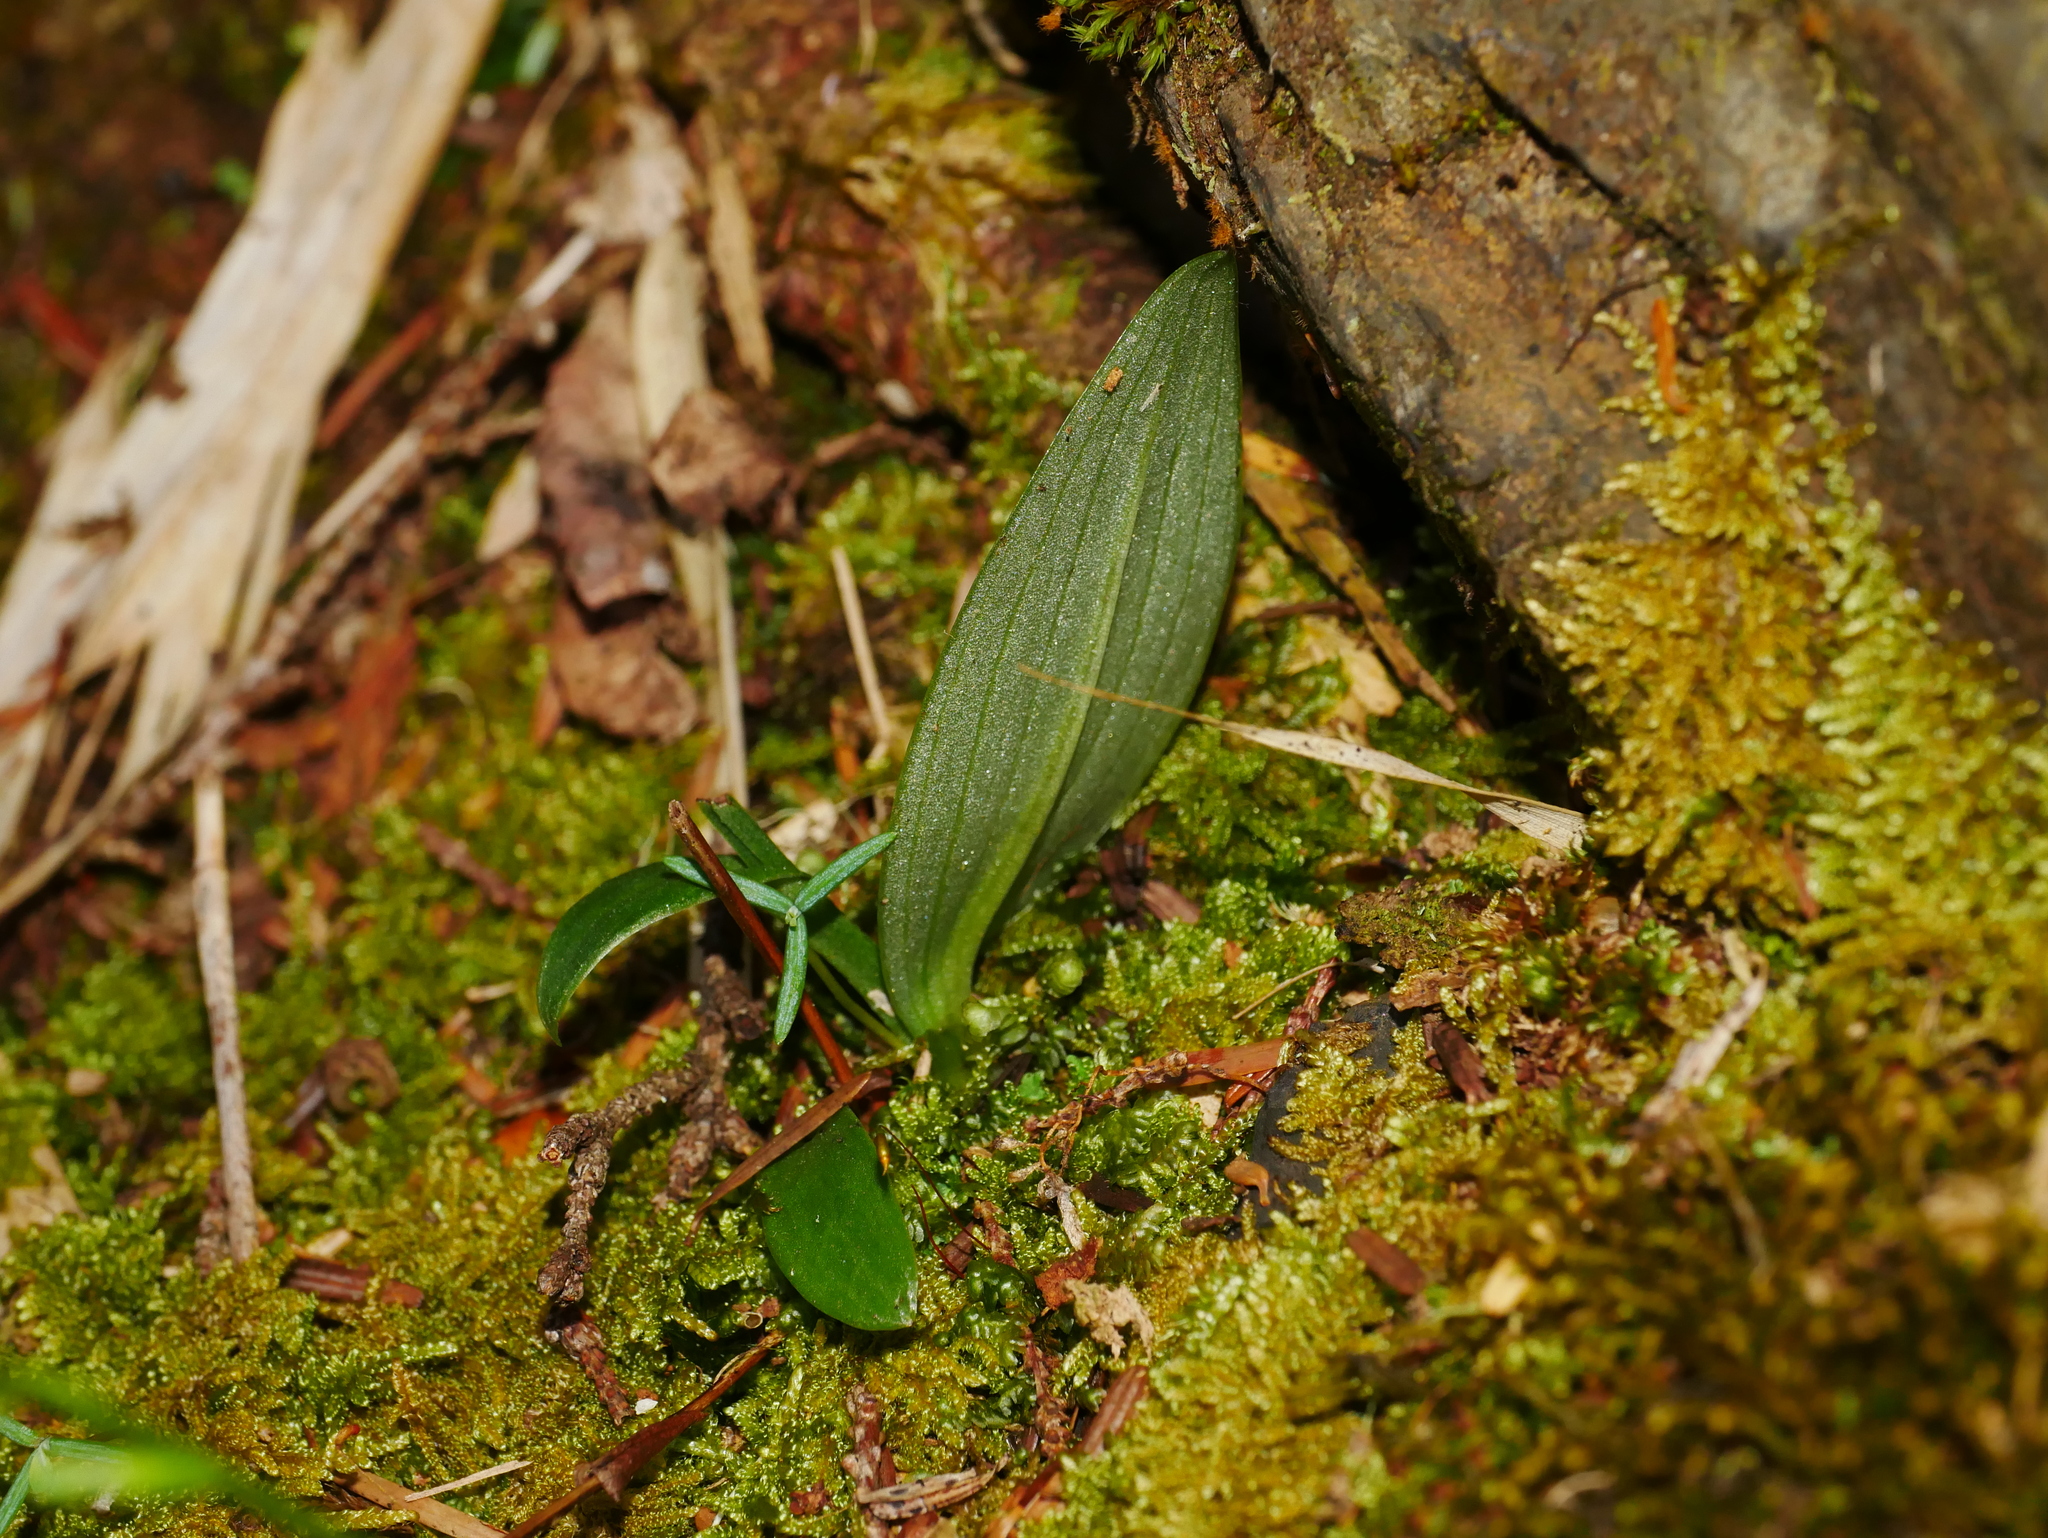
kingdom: Plantae
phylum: Tracheophyta
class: Liliopsida
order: Asparagales
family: Orchidaceae
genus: Platanthera
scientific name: Platanthera minor
